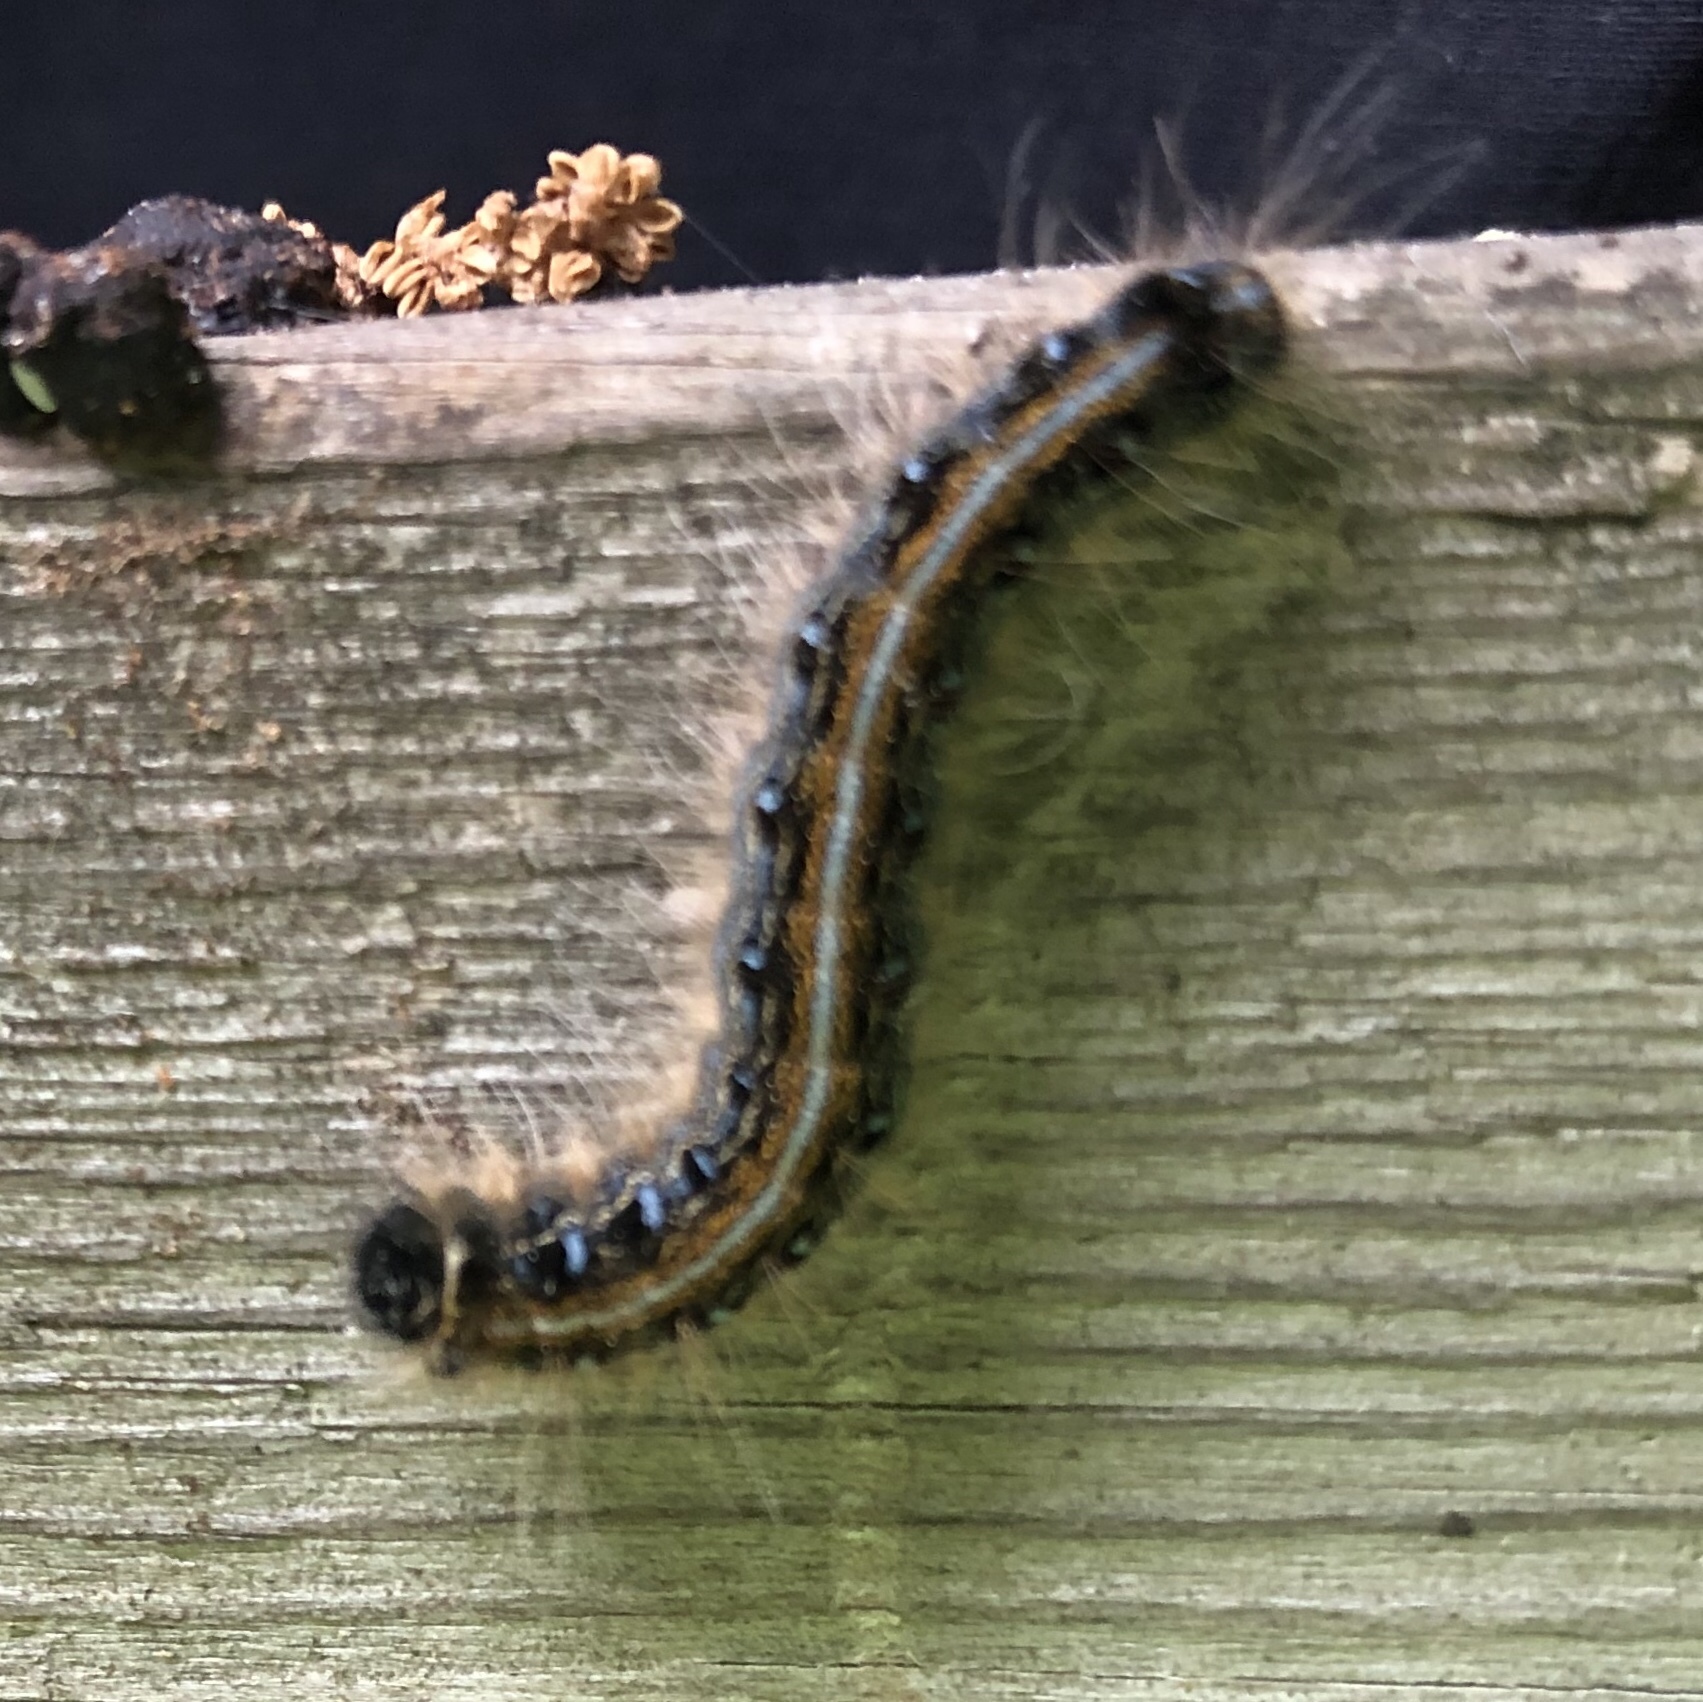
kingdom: Animalia
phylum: Arthropoda
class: Insecta
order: Lepidoptera
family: Lasiocampidae
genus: Malacosoma
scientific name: Malacosoma americana
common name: Eastern tent caterpillar moth
